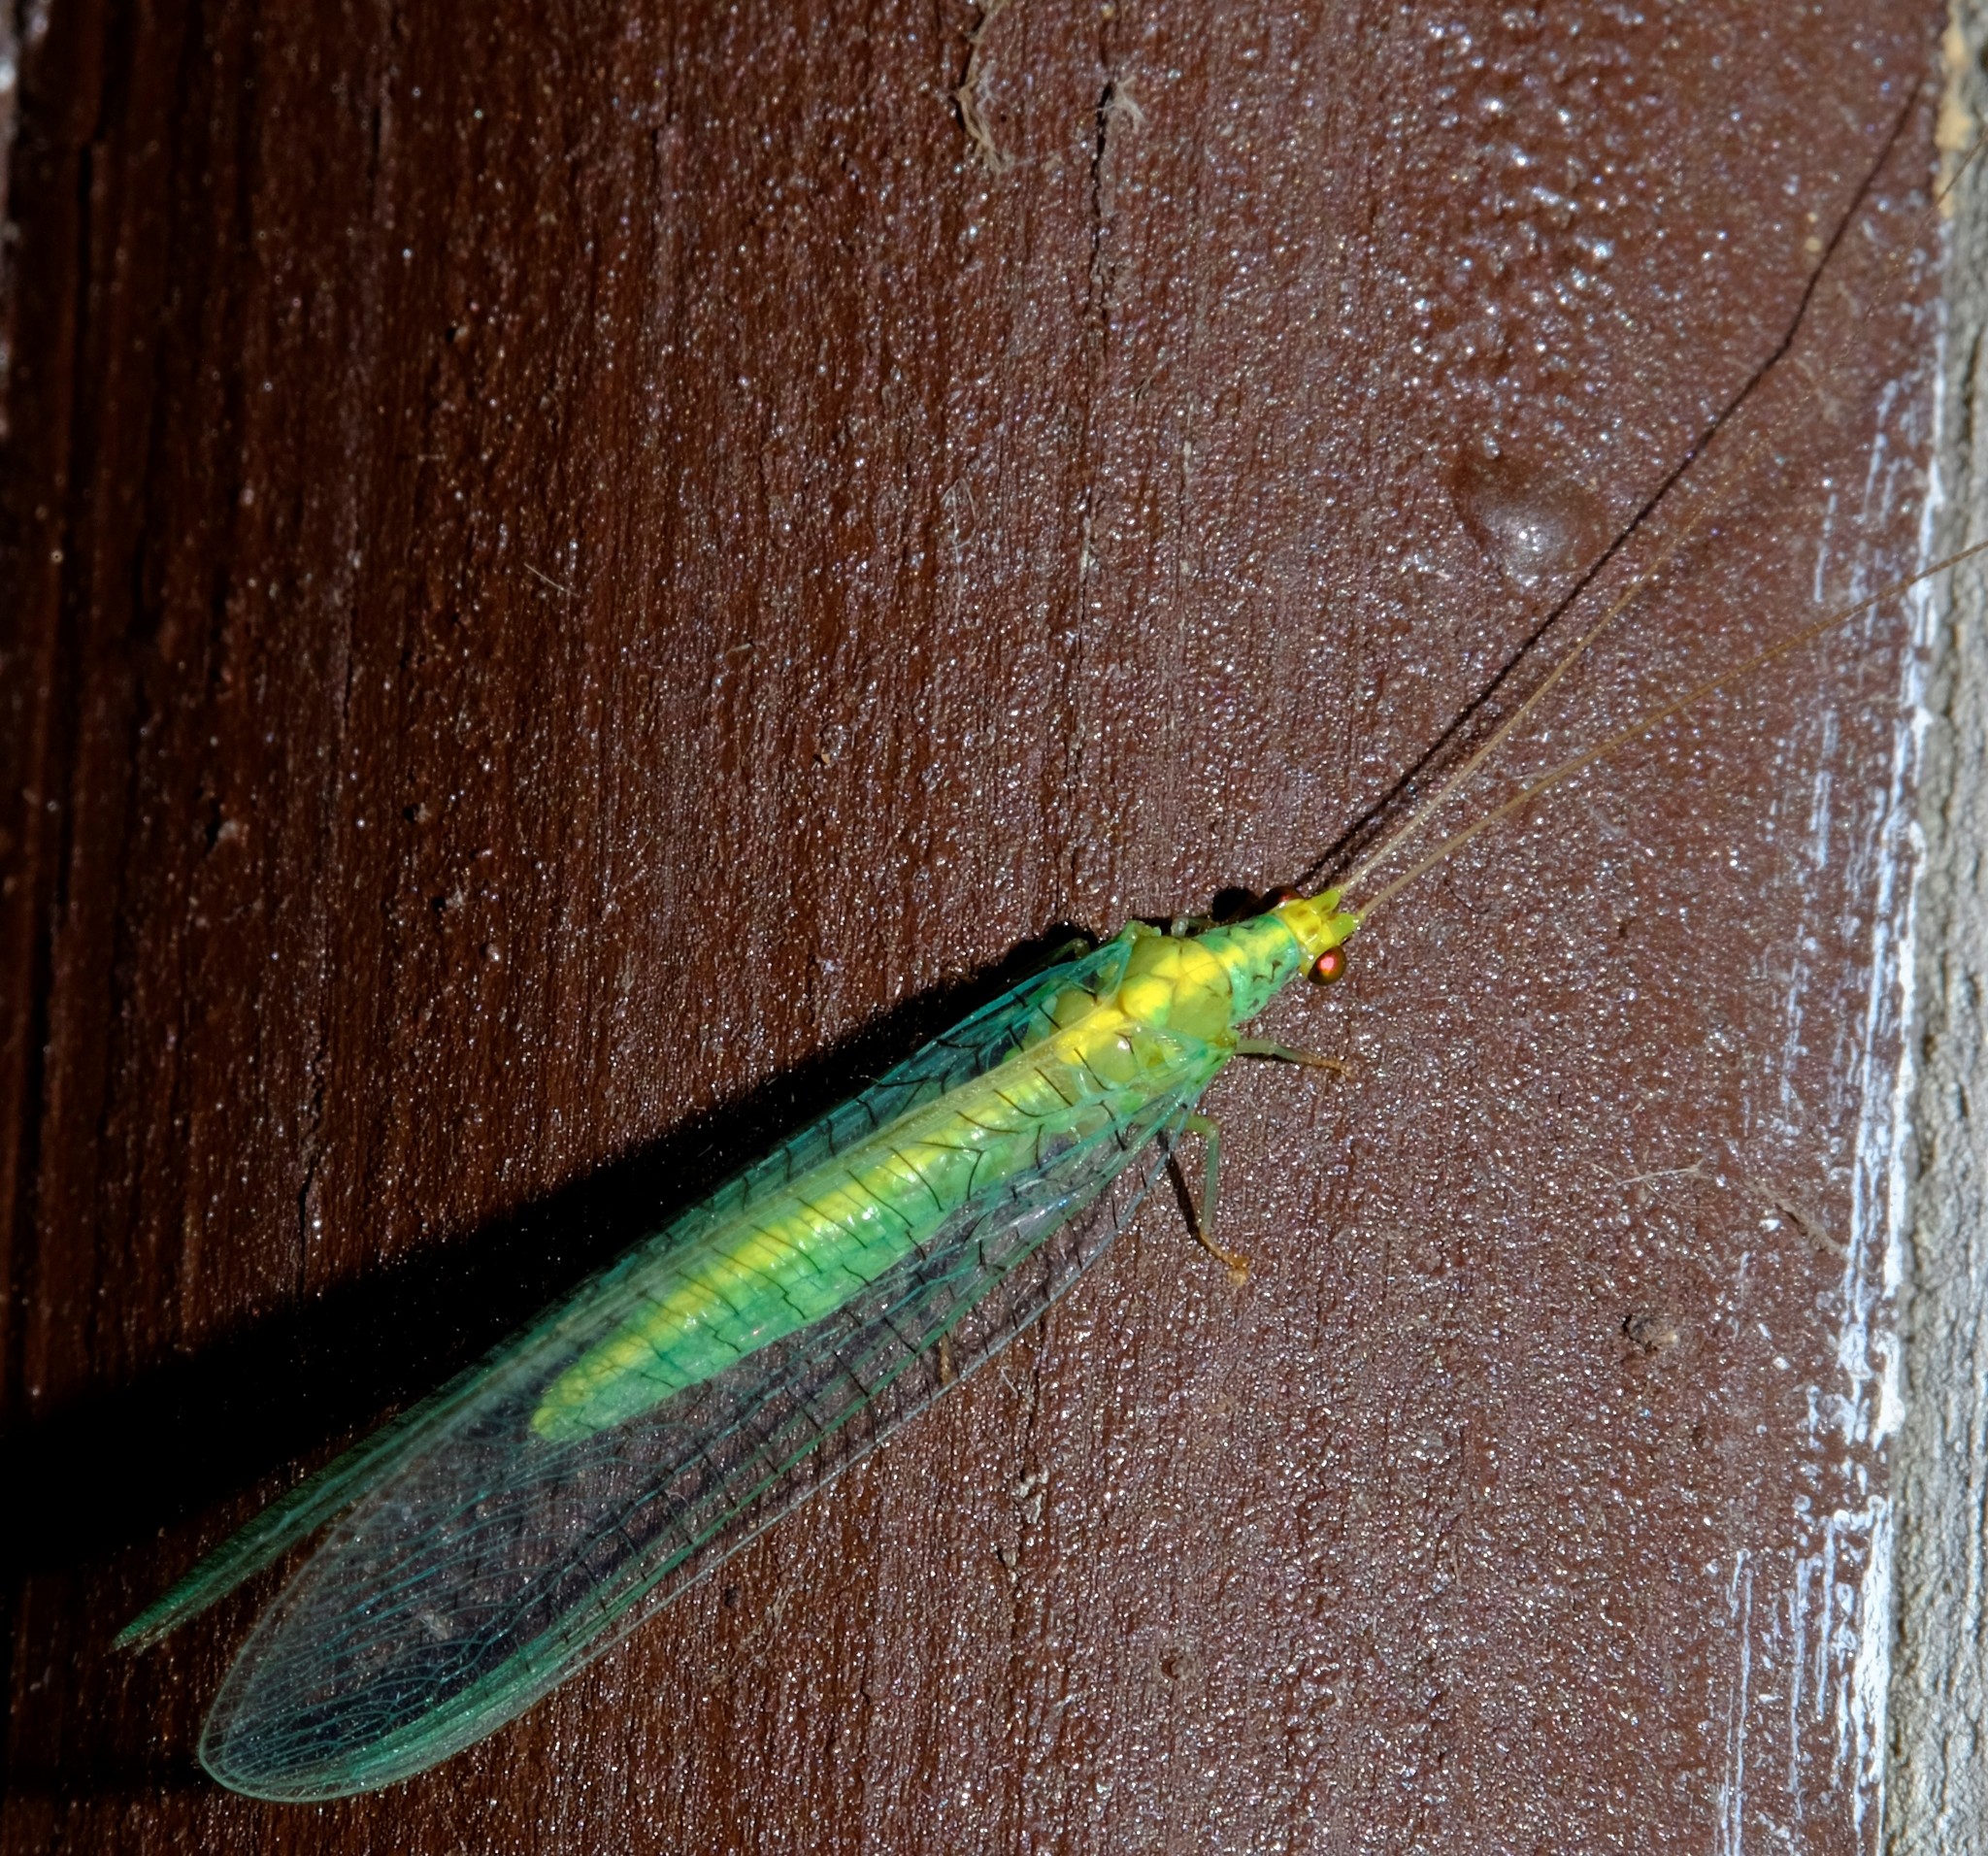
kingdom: Animalia
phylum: Arthropoda
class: Insecta
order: Neuroptera
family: Chrysopidae
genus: Pseudomallada
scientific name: Pseudomallada edwardsi
